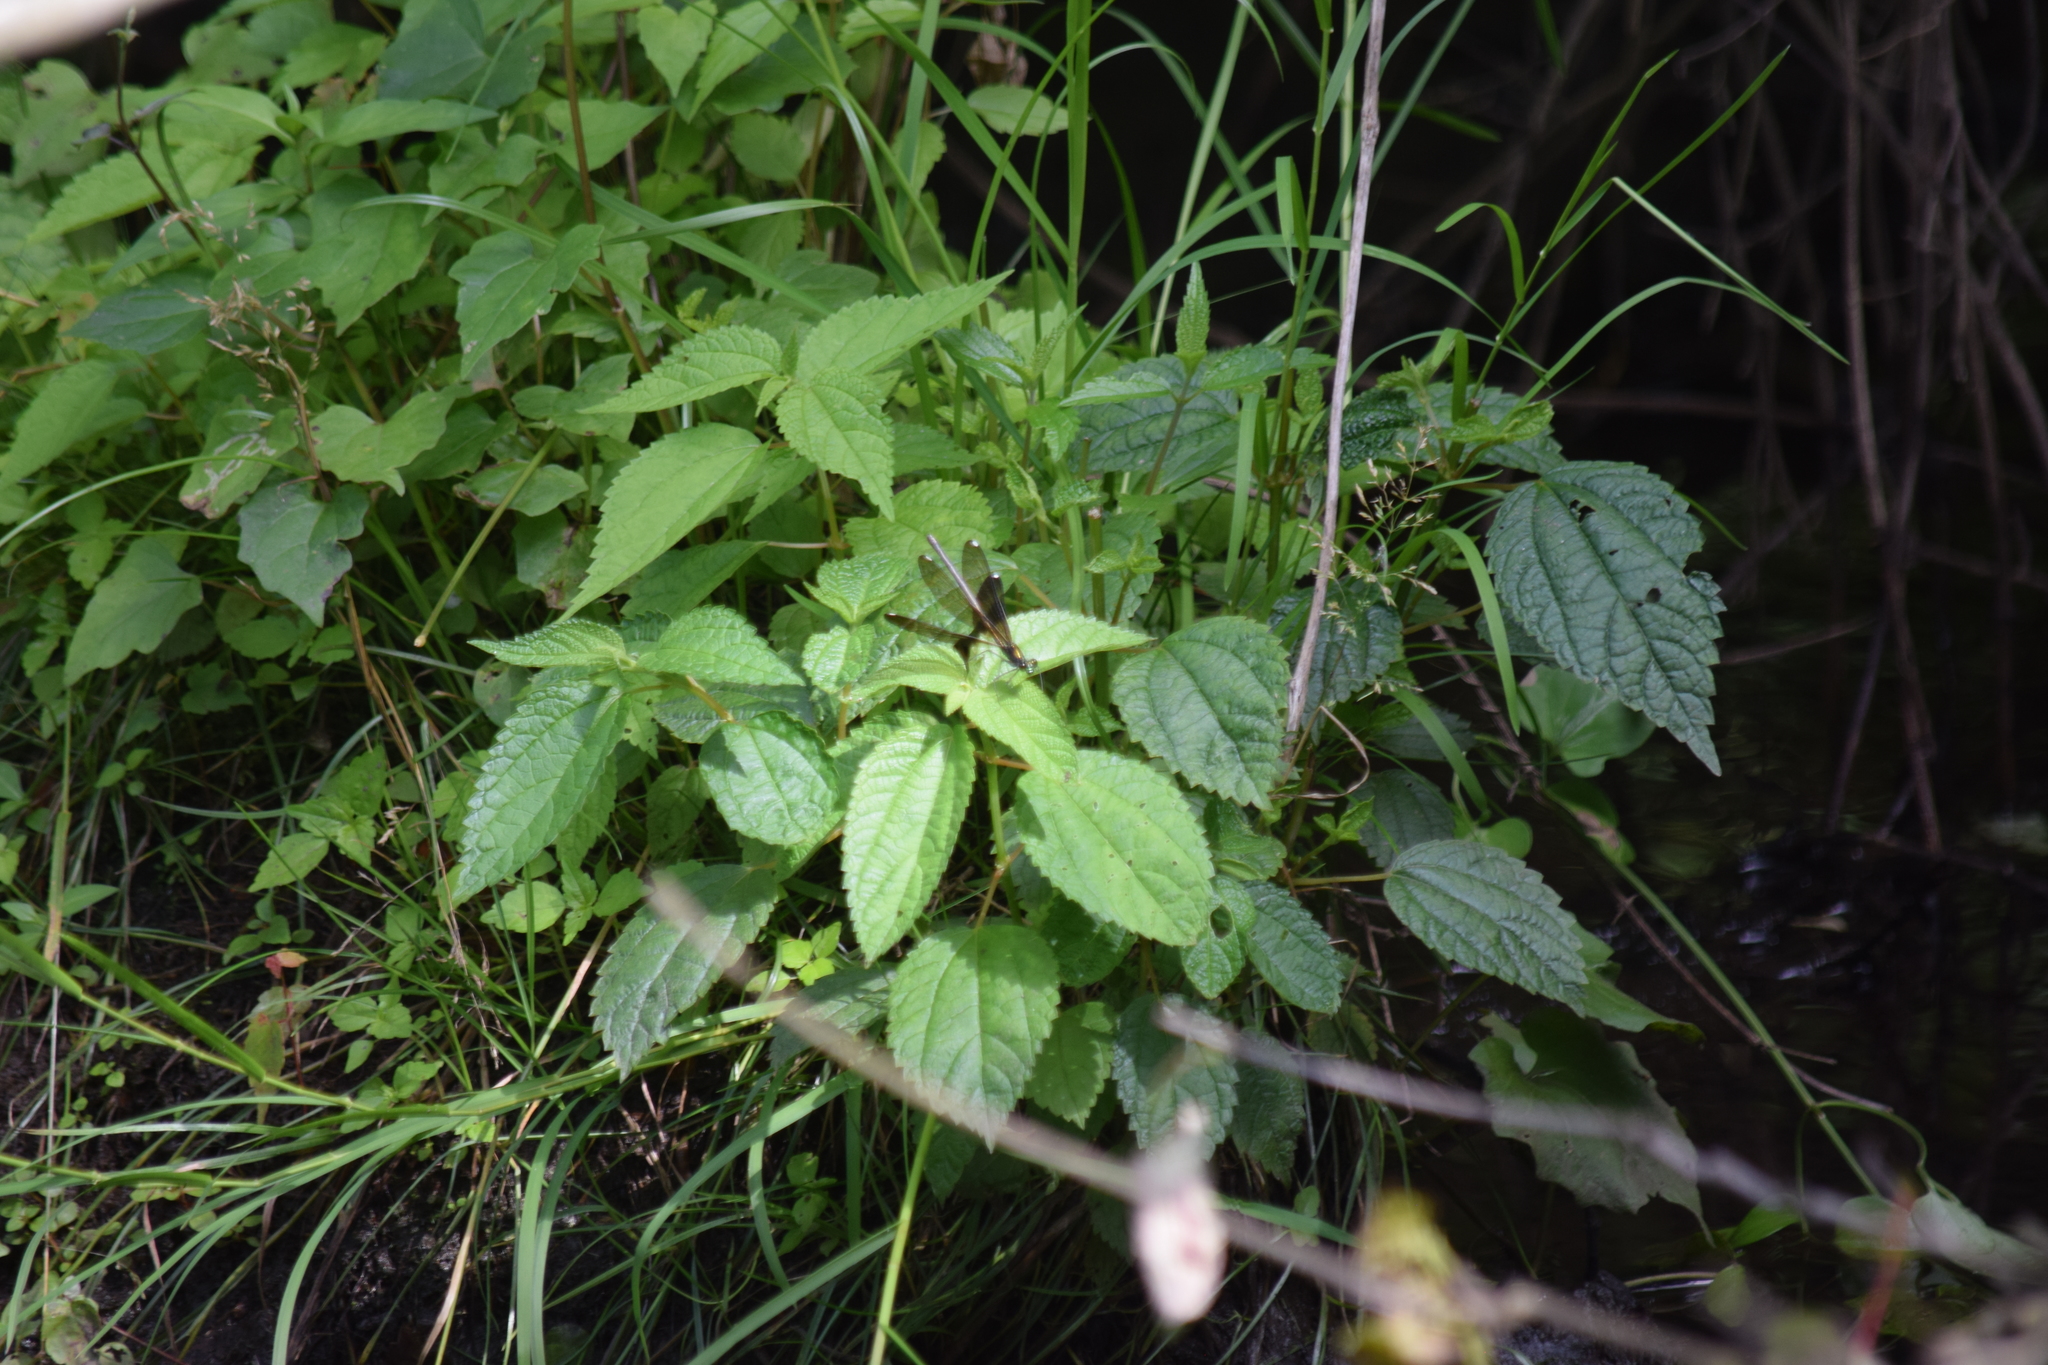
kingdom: Animalia
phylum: Arthropoda
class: Insecta
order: Odonata
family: Calopterygidae
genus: Calopteryx
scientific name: Calopteryx maculata
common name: Ebony jewelwing
